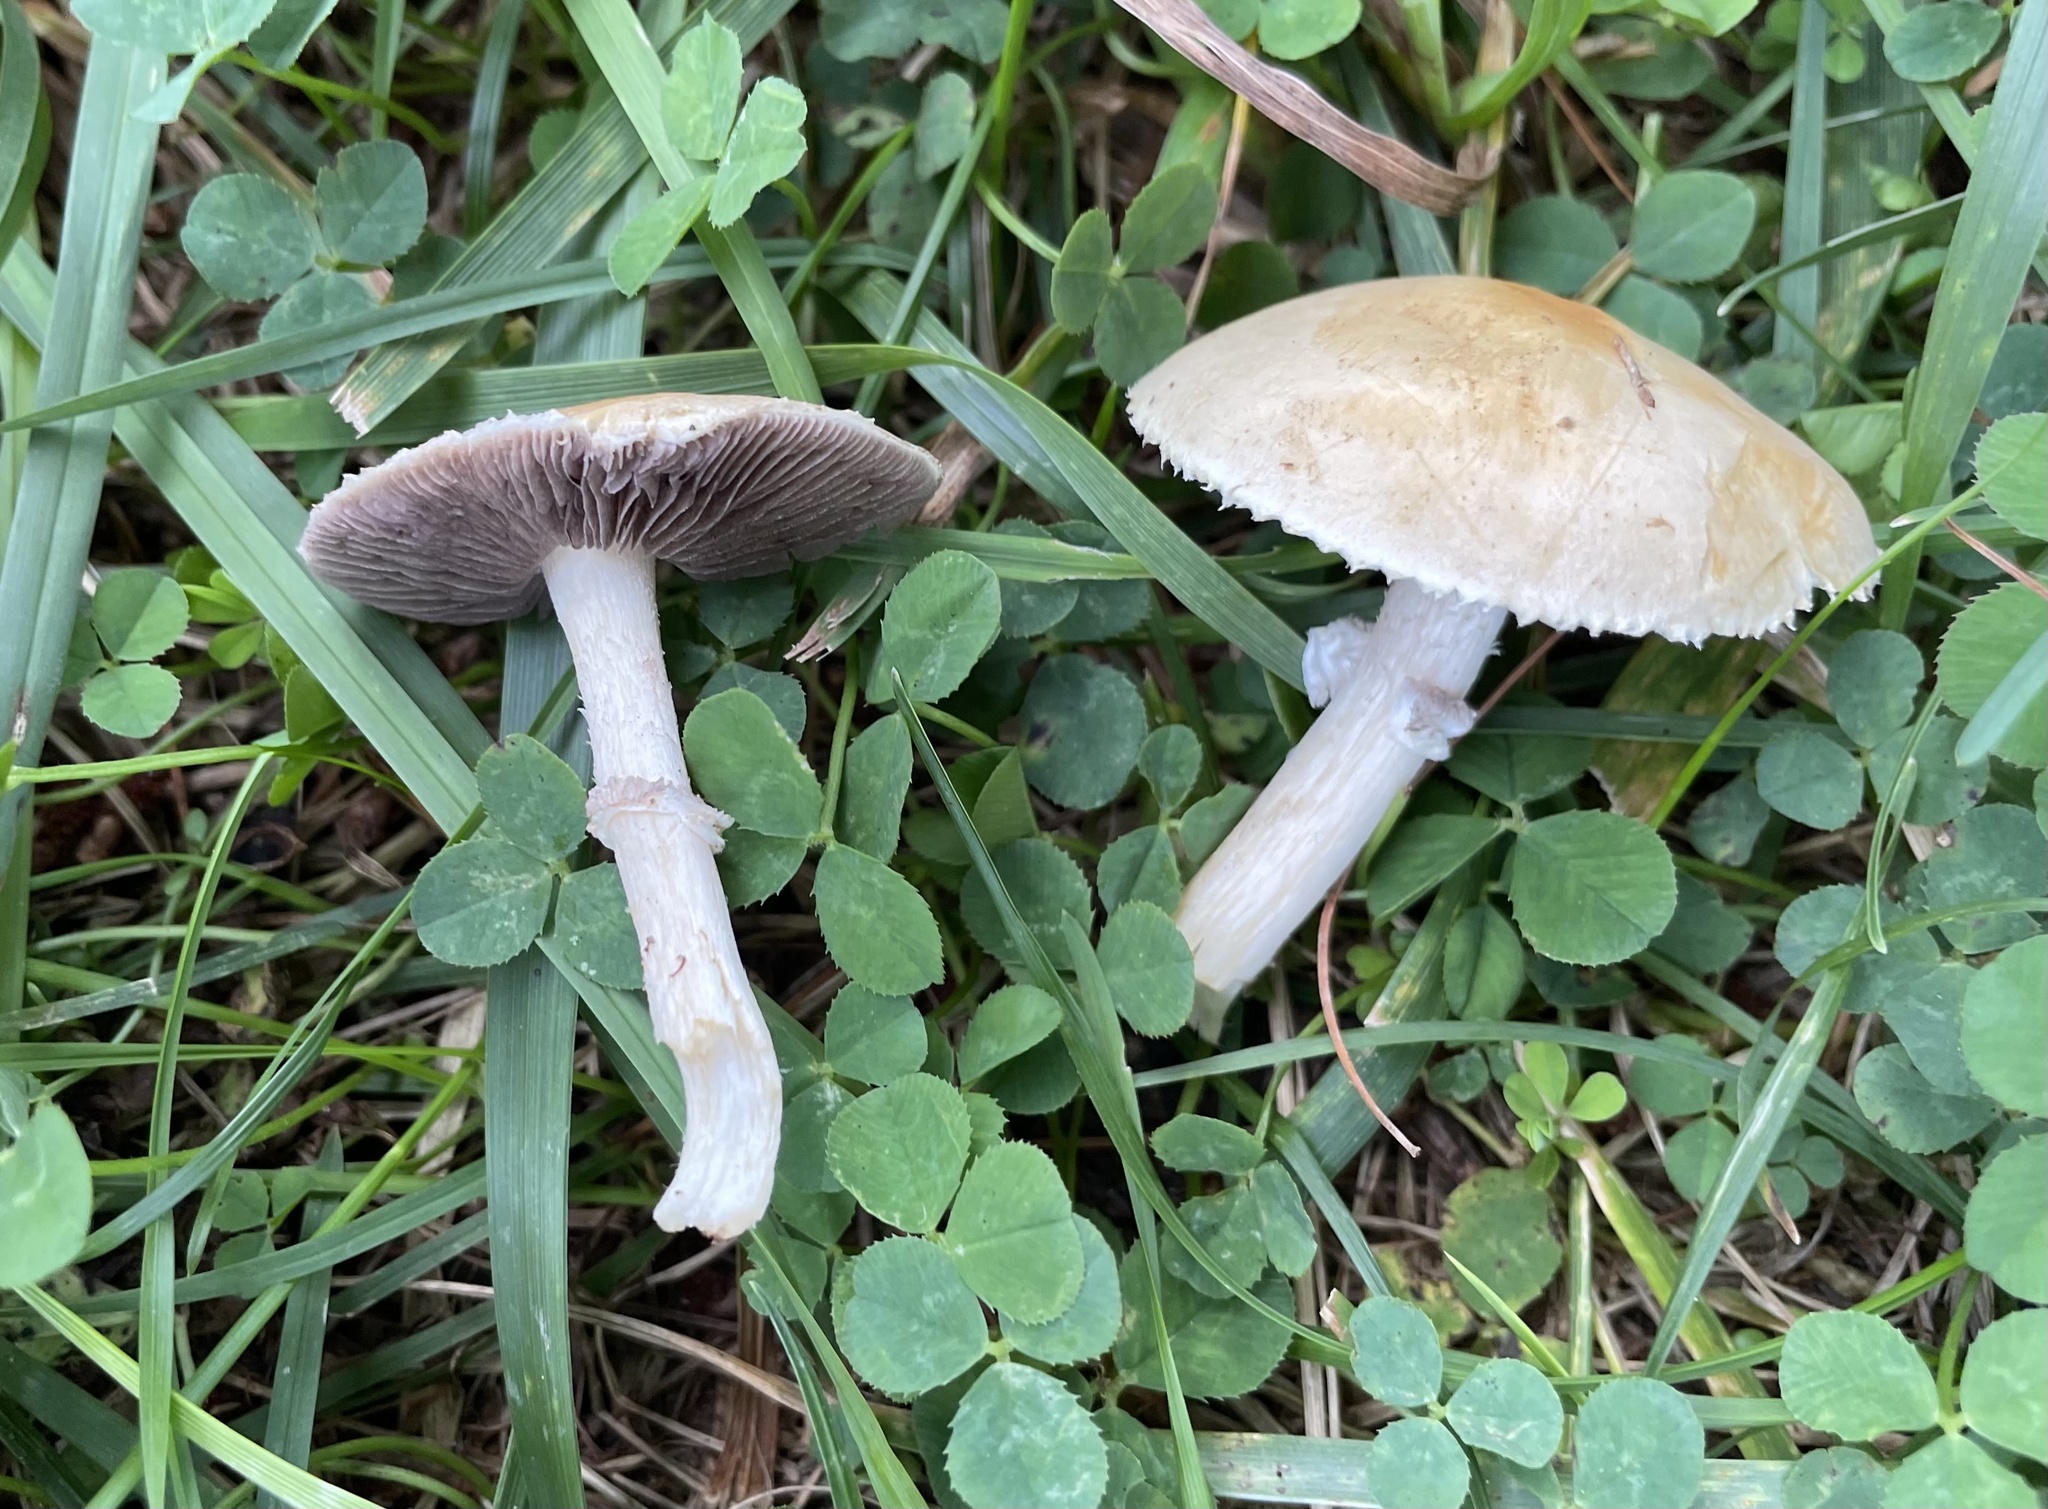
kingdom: Fungi
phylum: Basidiomycota
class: Agaricomycetes
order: Agaricales
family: Hymenogastraceae
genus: Psilocybe
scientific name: Psilocybe coronilla
